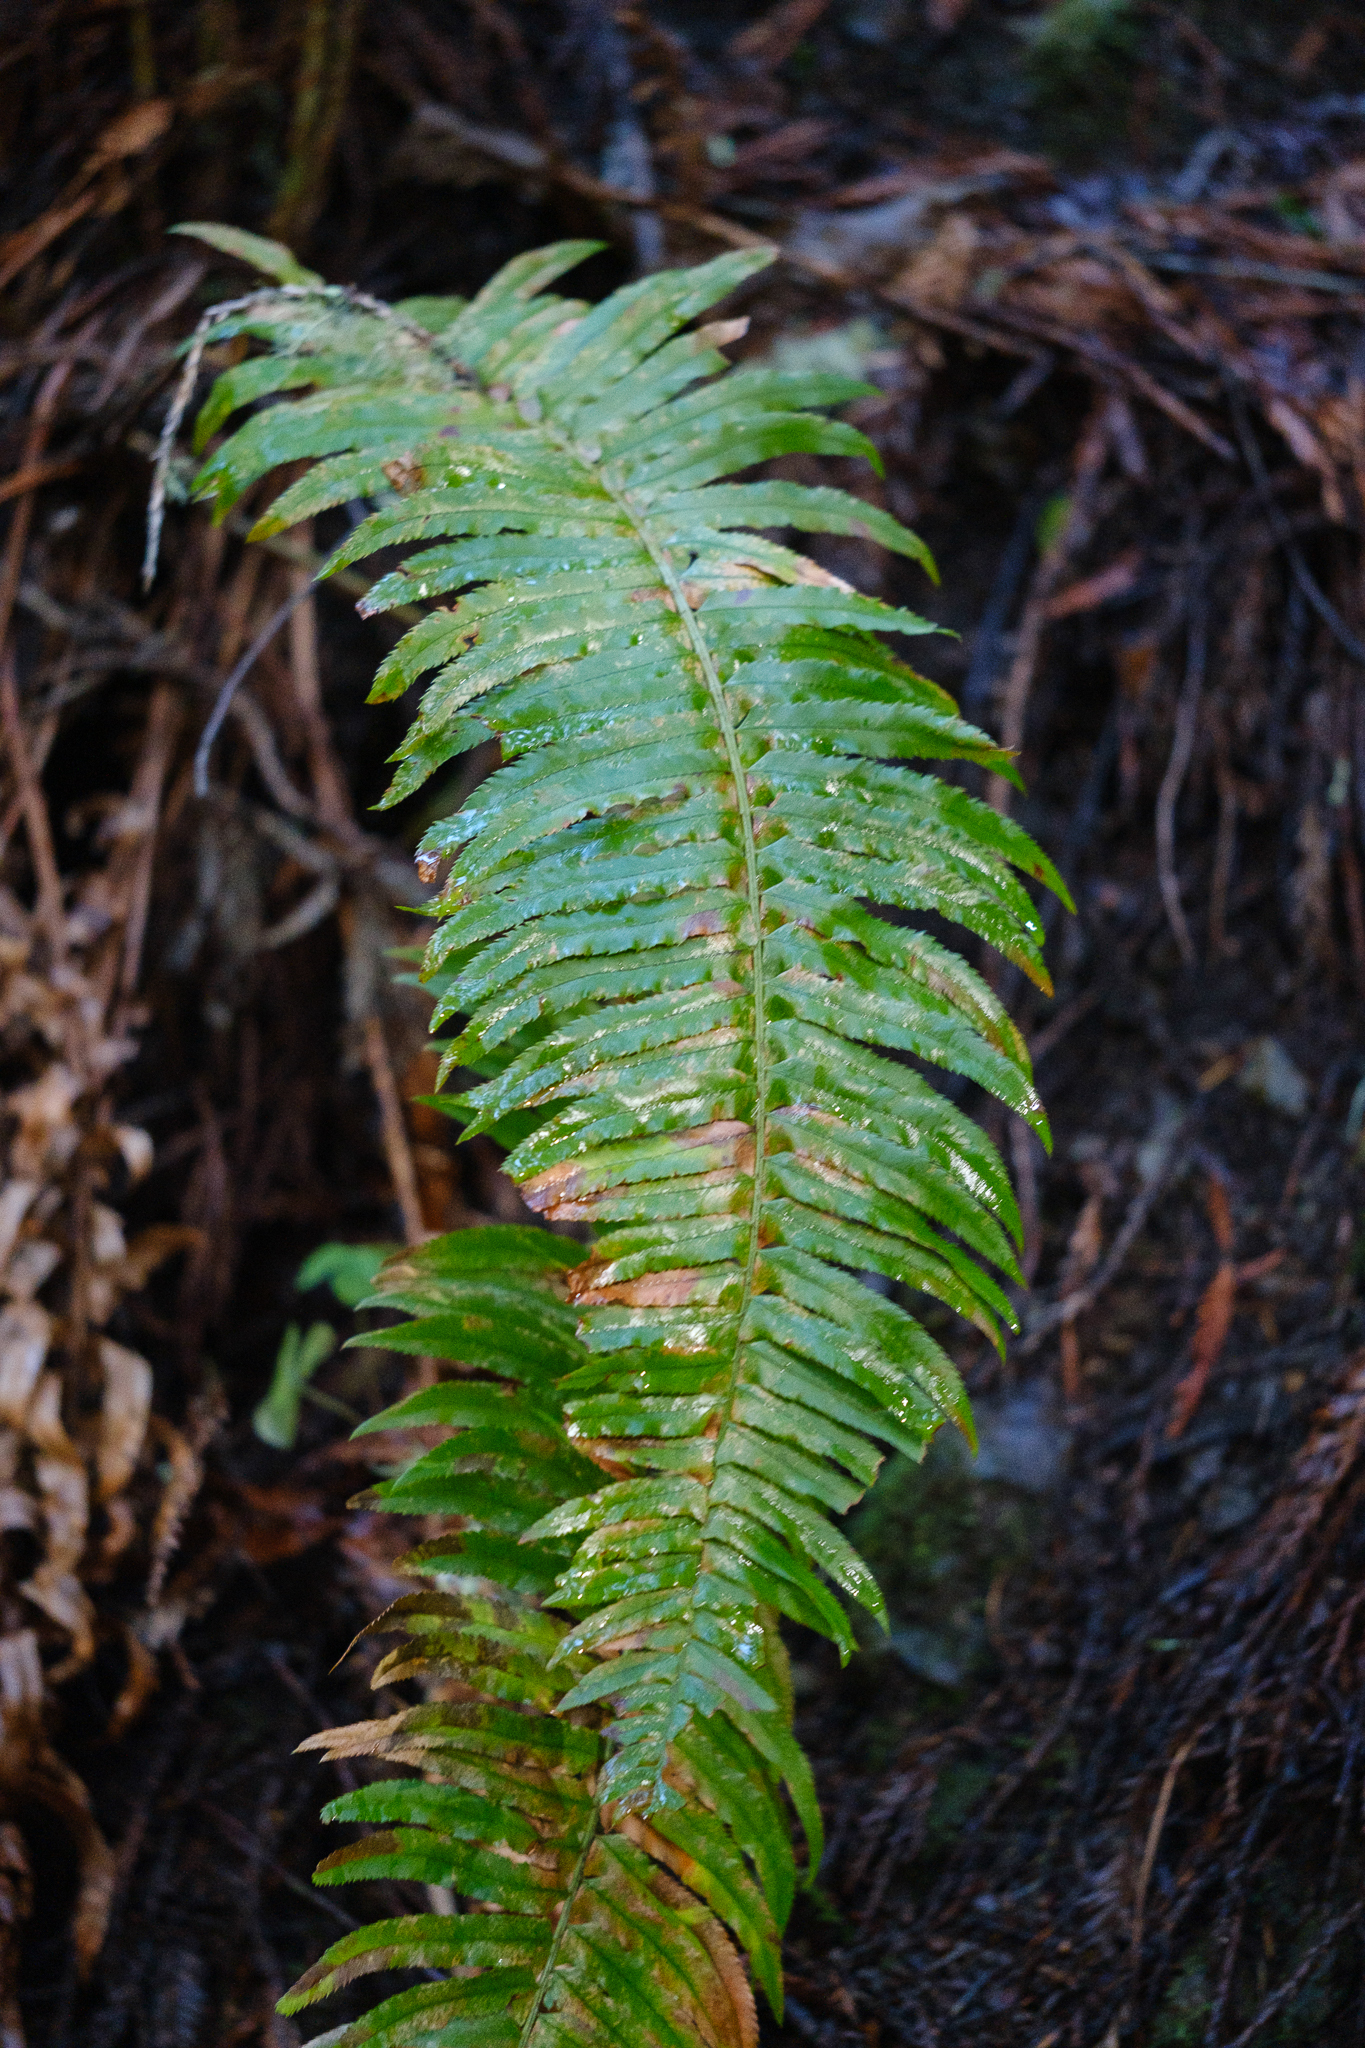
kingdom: Plantae
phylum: Tracheophyta
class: Polypodiopsida
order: Polypodiales
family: Dryopteridaceae
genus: Polystichum
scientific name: Polystichum munitum
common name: Western sword-fern
